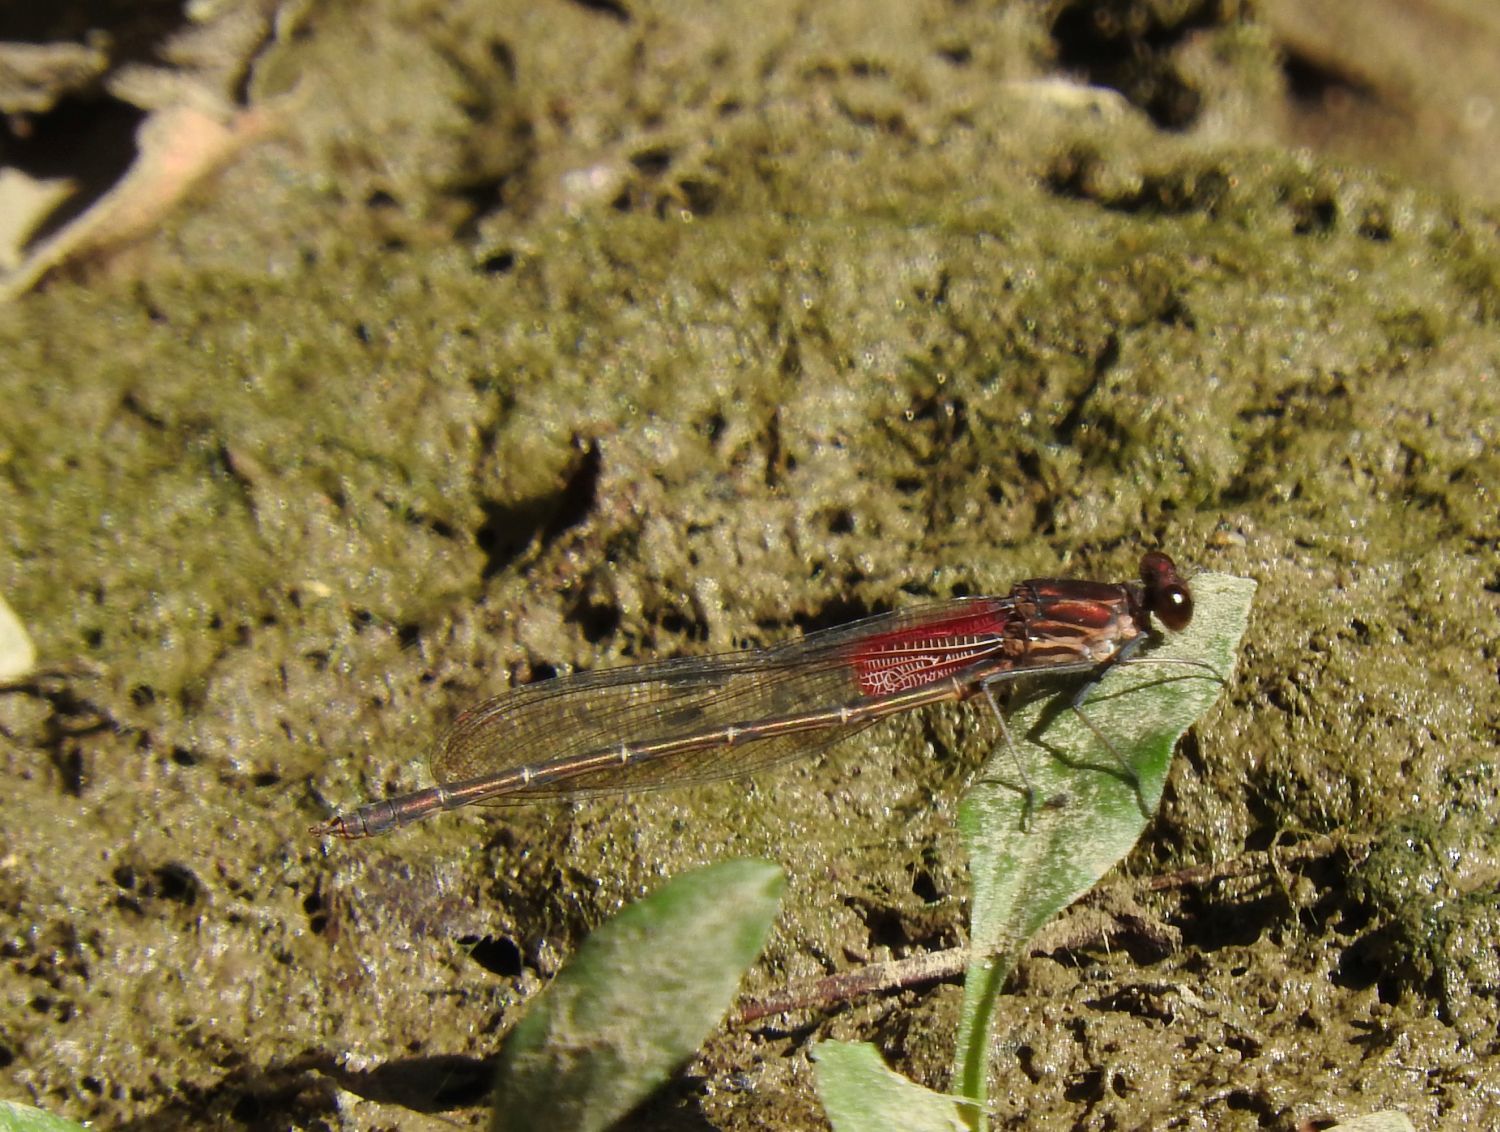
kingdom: Animalia
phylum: Arthropoda
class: Insecta
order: Odonata
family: Calopterygidae
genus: Hetaerina
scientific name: Hetaerina americana
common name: American rubyspot
